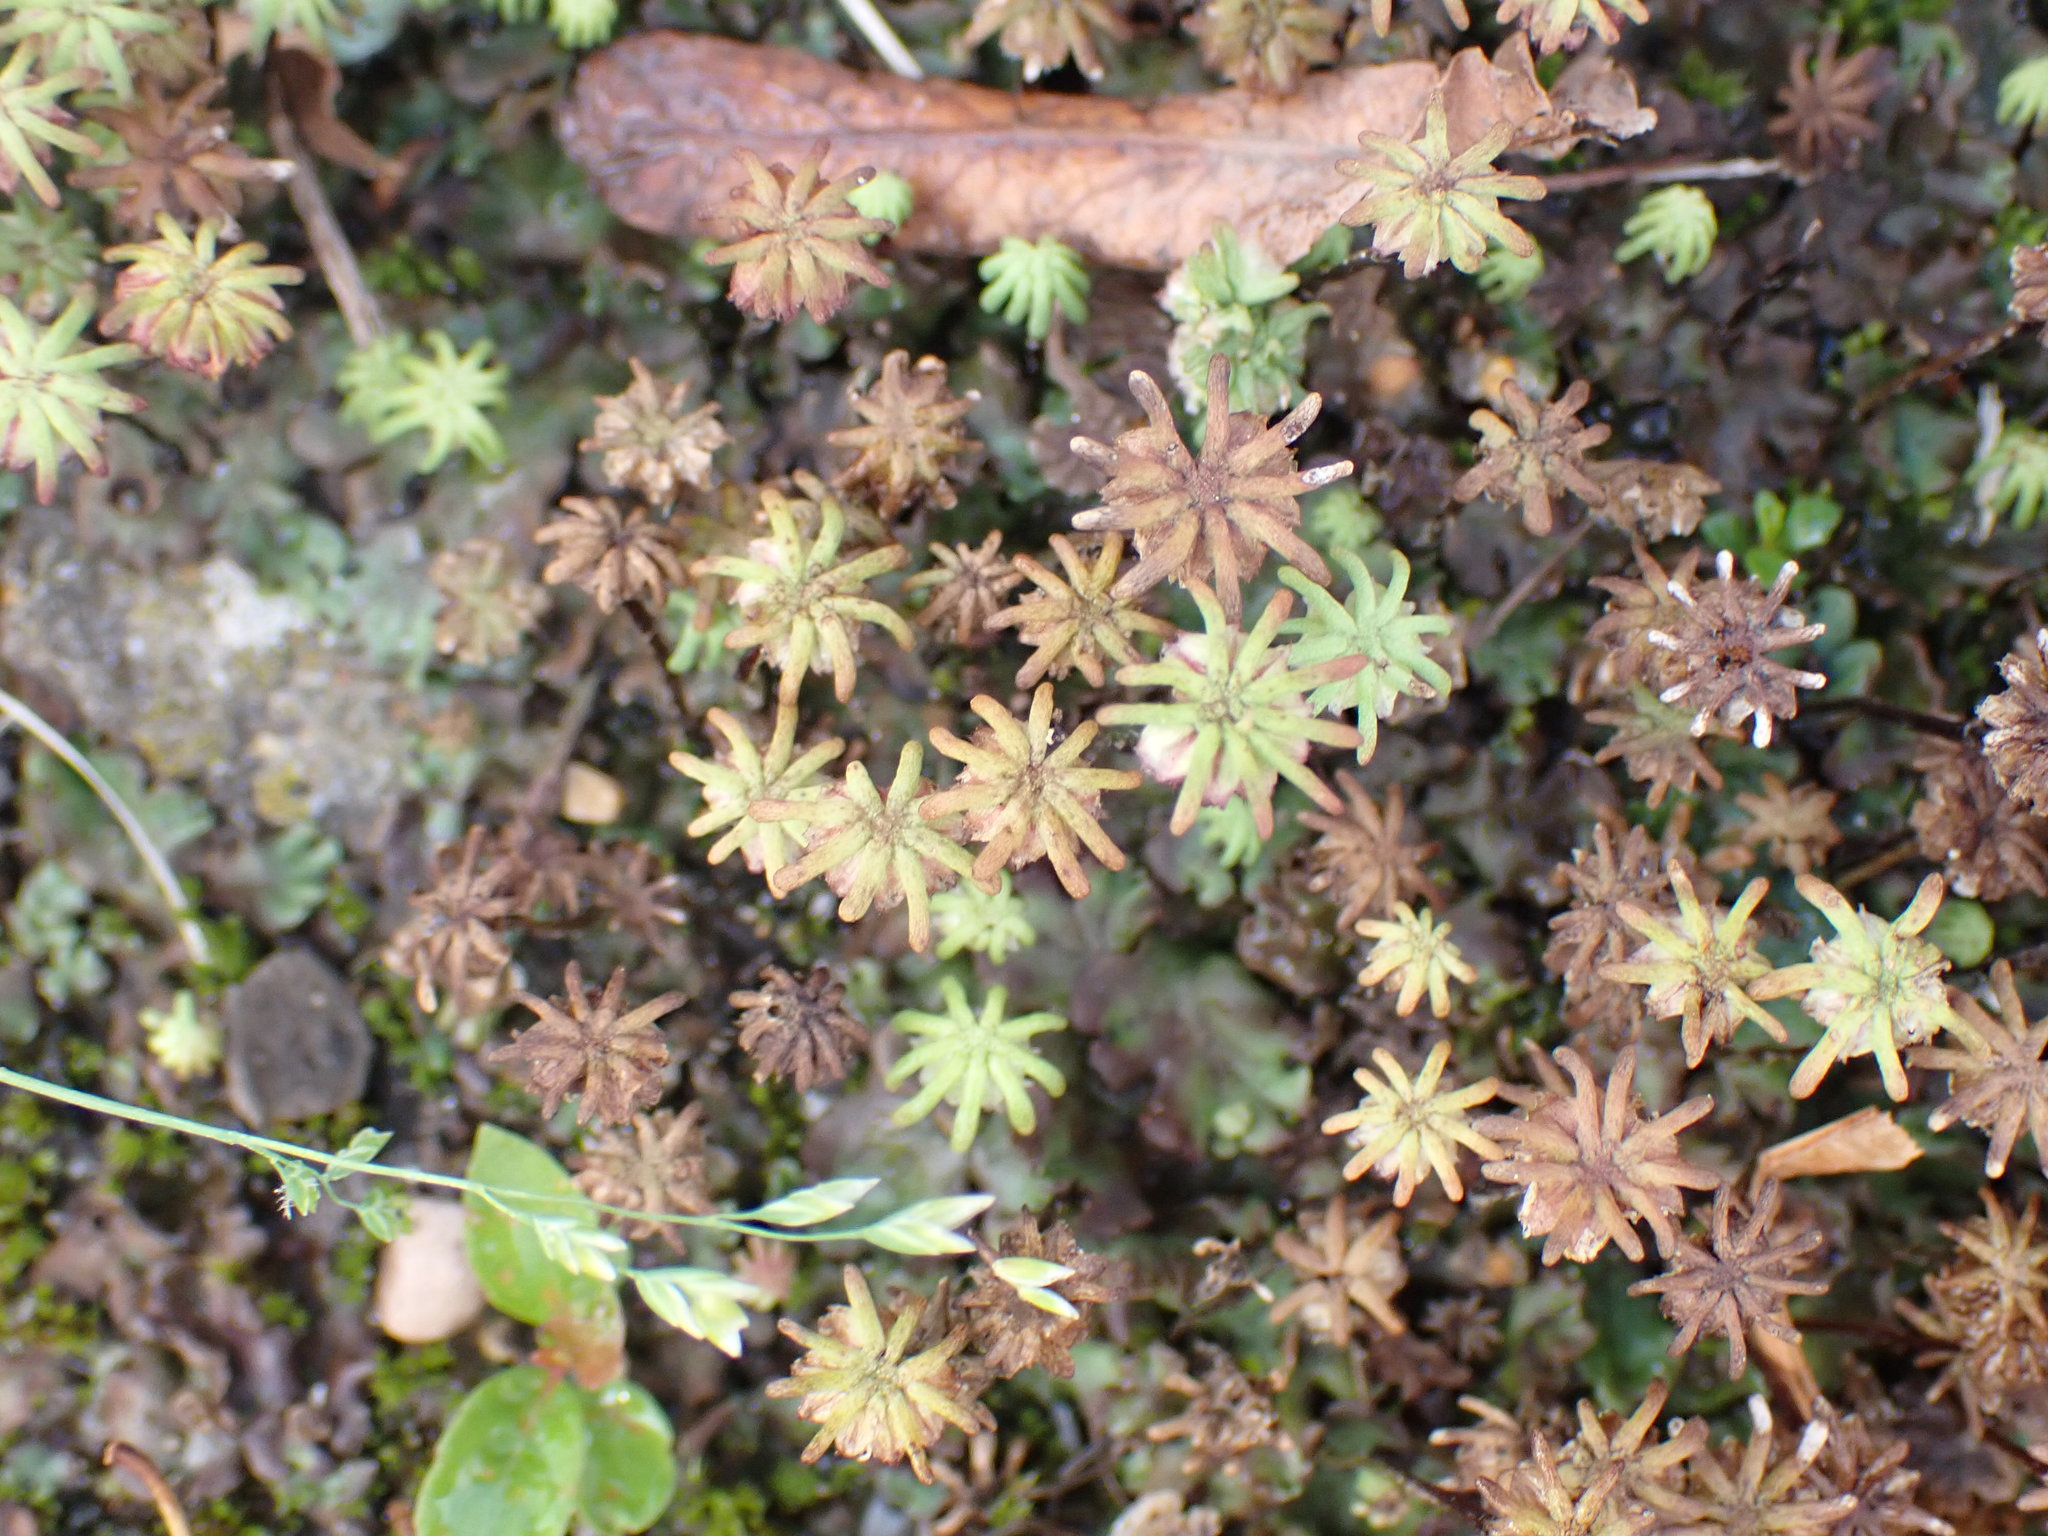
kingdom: Plantae
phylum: Marchantiophyta
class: Marchantiopsida
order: Marchantiales
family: Marchantiaceae
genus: Marchantia
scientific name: Marchantia polymorpha
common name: Common liverwort
